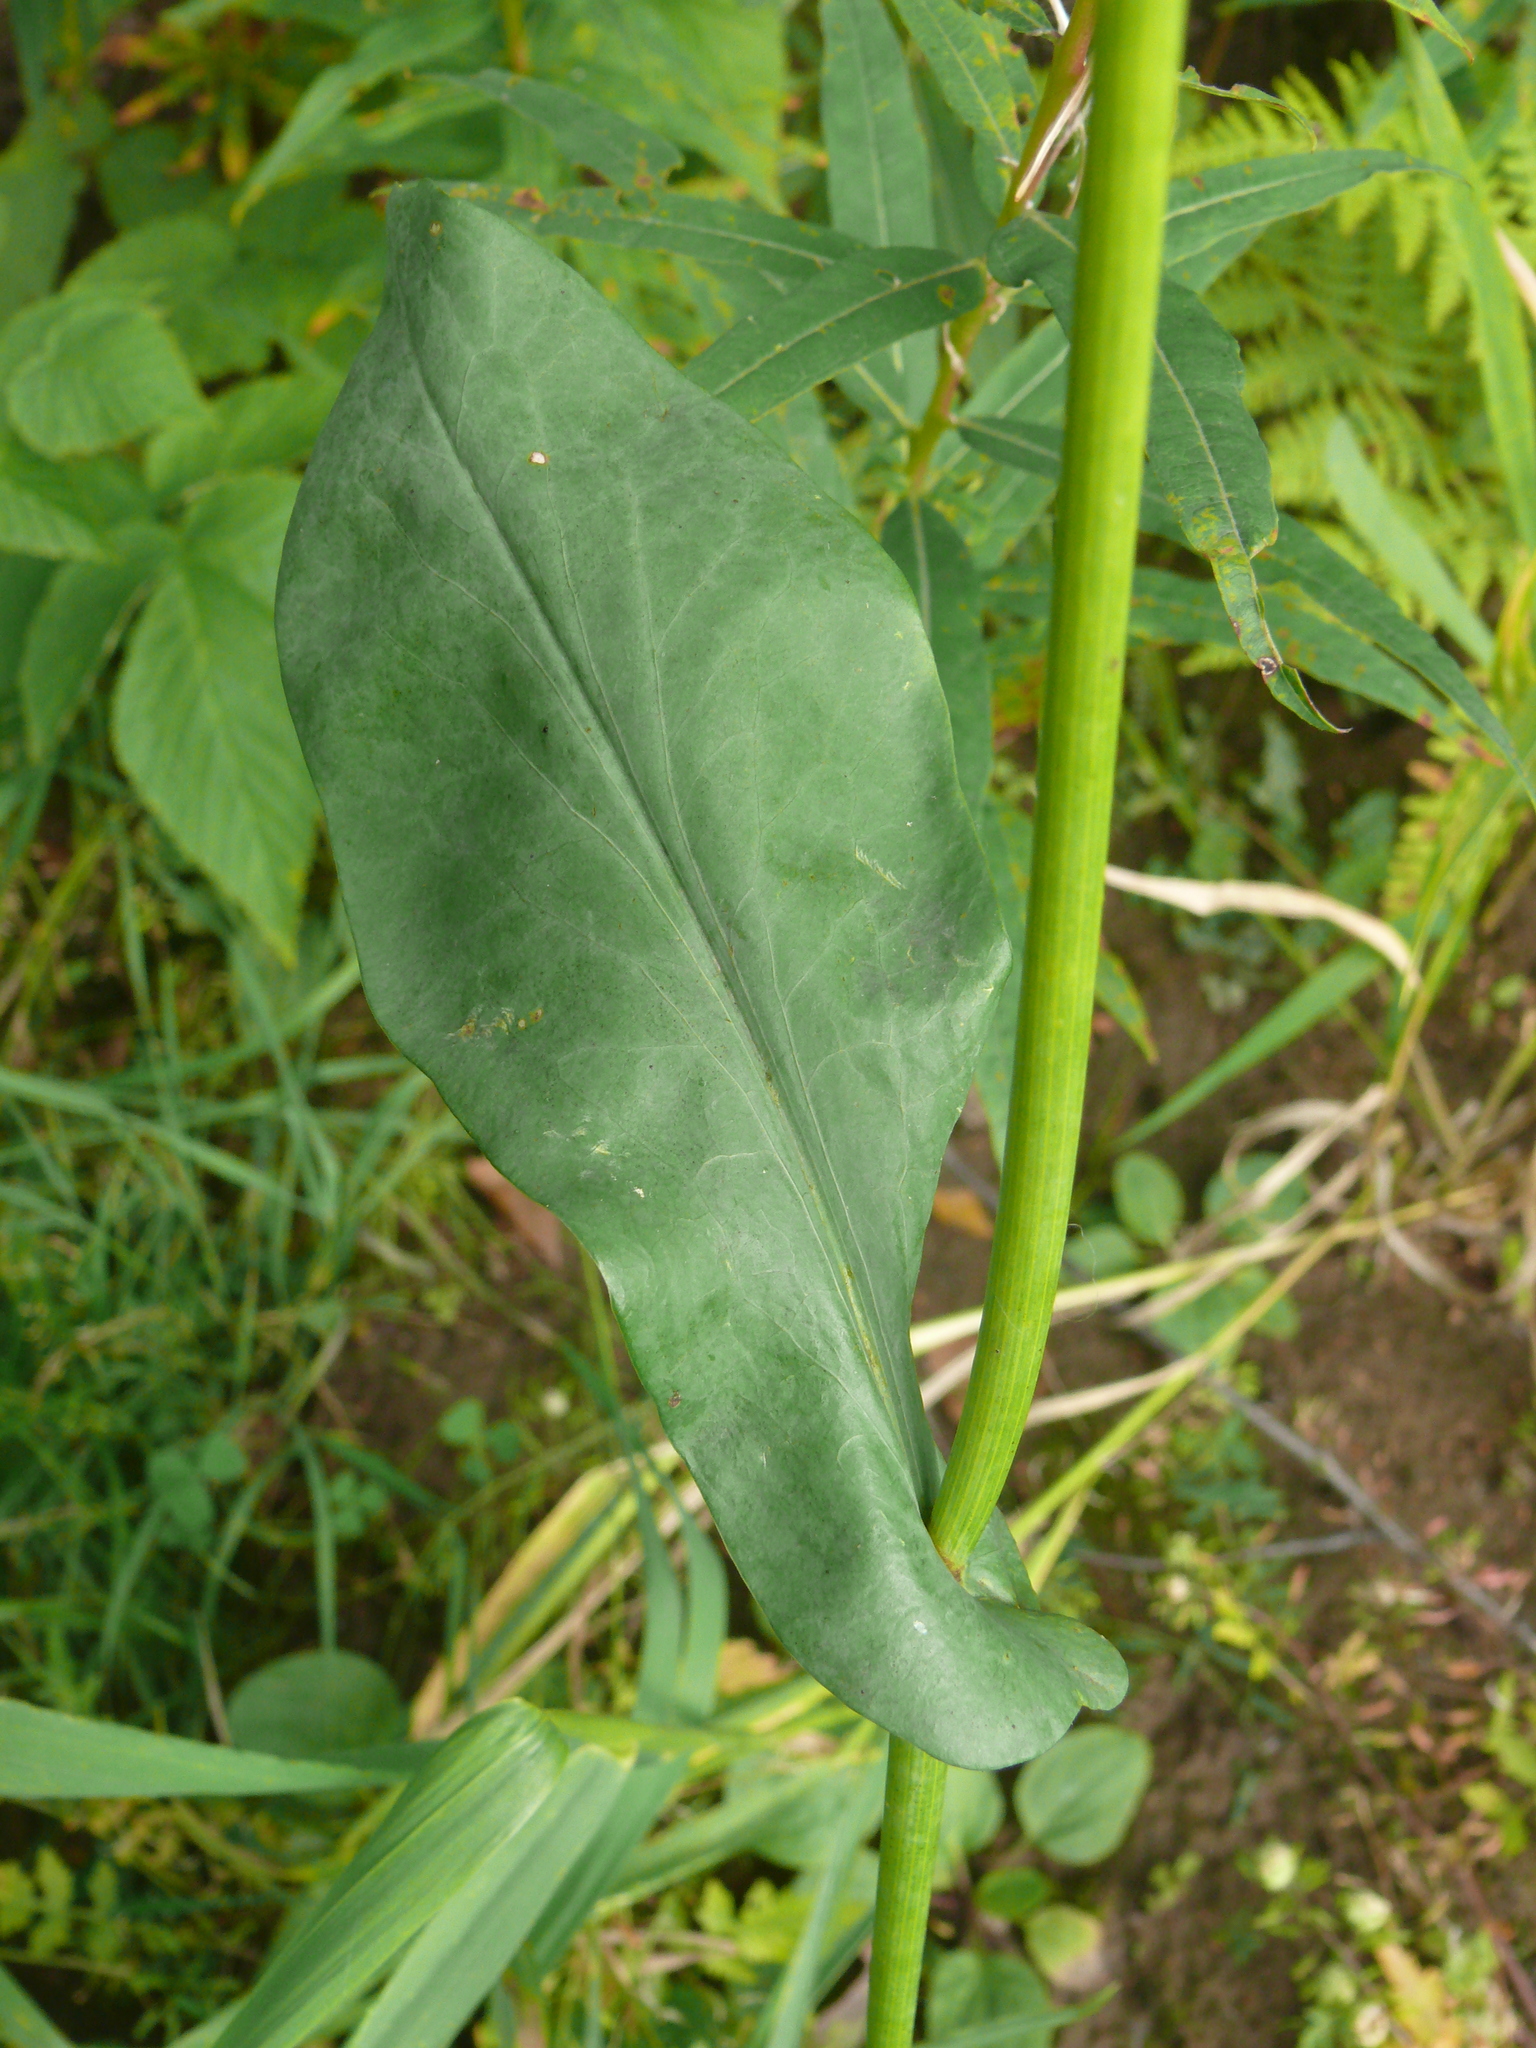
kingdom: Plantae
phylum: Tracheophyta
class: Magnoliopsida
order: Apiales
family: Apiaceae
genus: Bupleurum
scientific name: Bupleurum aureum
